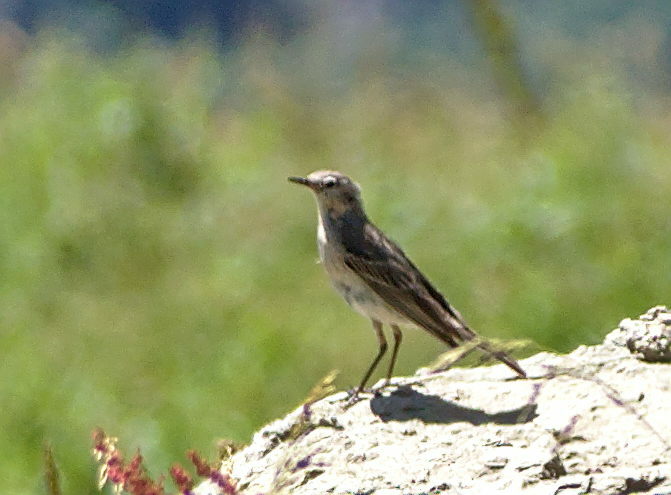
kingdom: Animalia
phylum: Chordata
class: Aves
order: Passeriformes
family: Motacillidae
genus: Anthus
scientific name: Anthus spinoletta
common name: Water pipit
